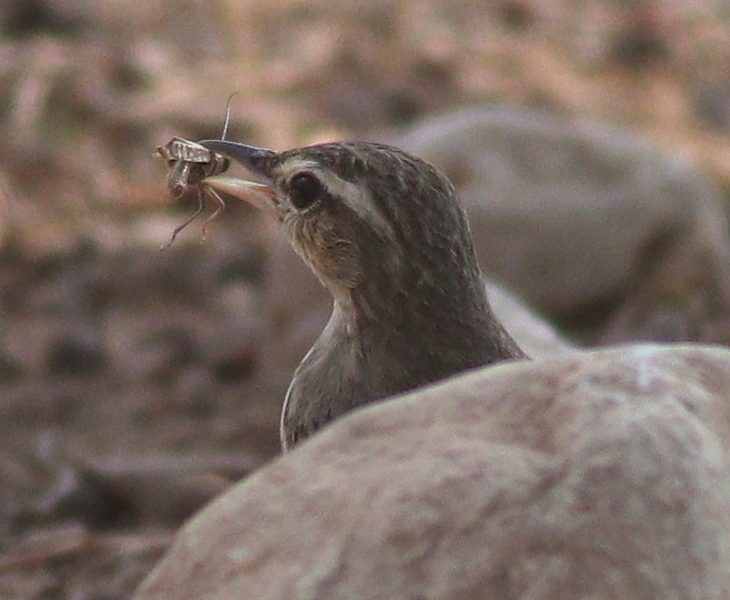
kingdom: Animalia
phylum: Chordata
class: Aves
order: Passeriformes
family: Motacillidae
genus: Anthus
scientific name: Anthus similis
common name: Long-billed pipit
